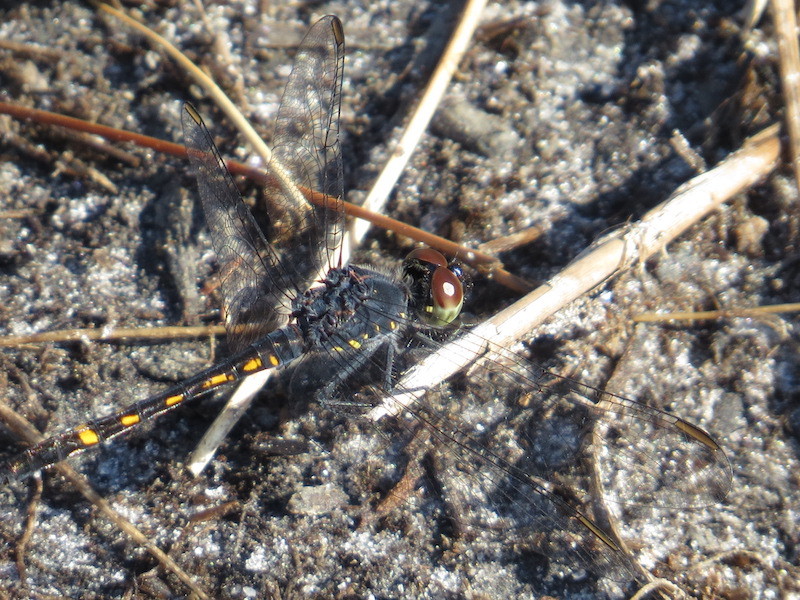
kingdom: Animalia
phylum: Arthropoda
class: Insecta
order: Odonata
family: Libellulidae
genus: Erythrodiplax
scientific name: Erythrodiplax berenice
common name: Seaside dragonlet
